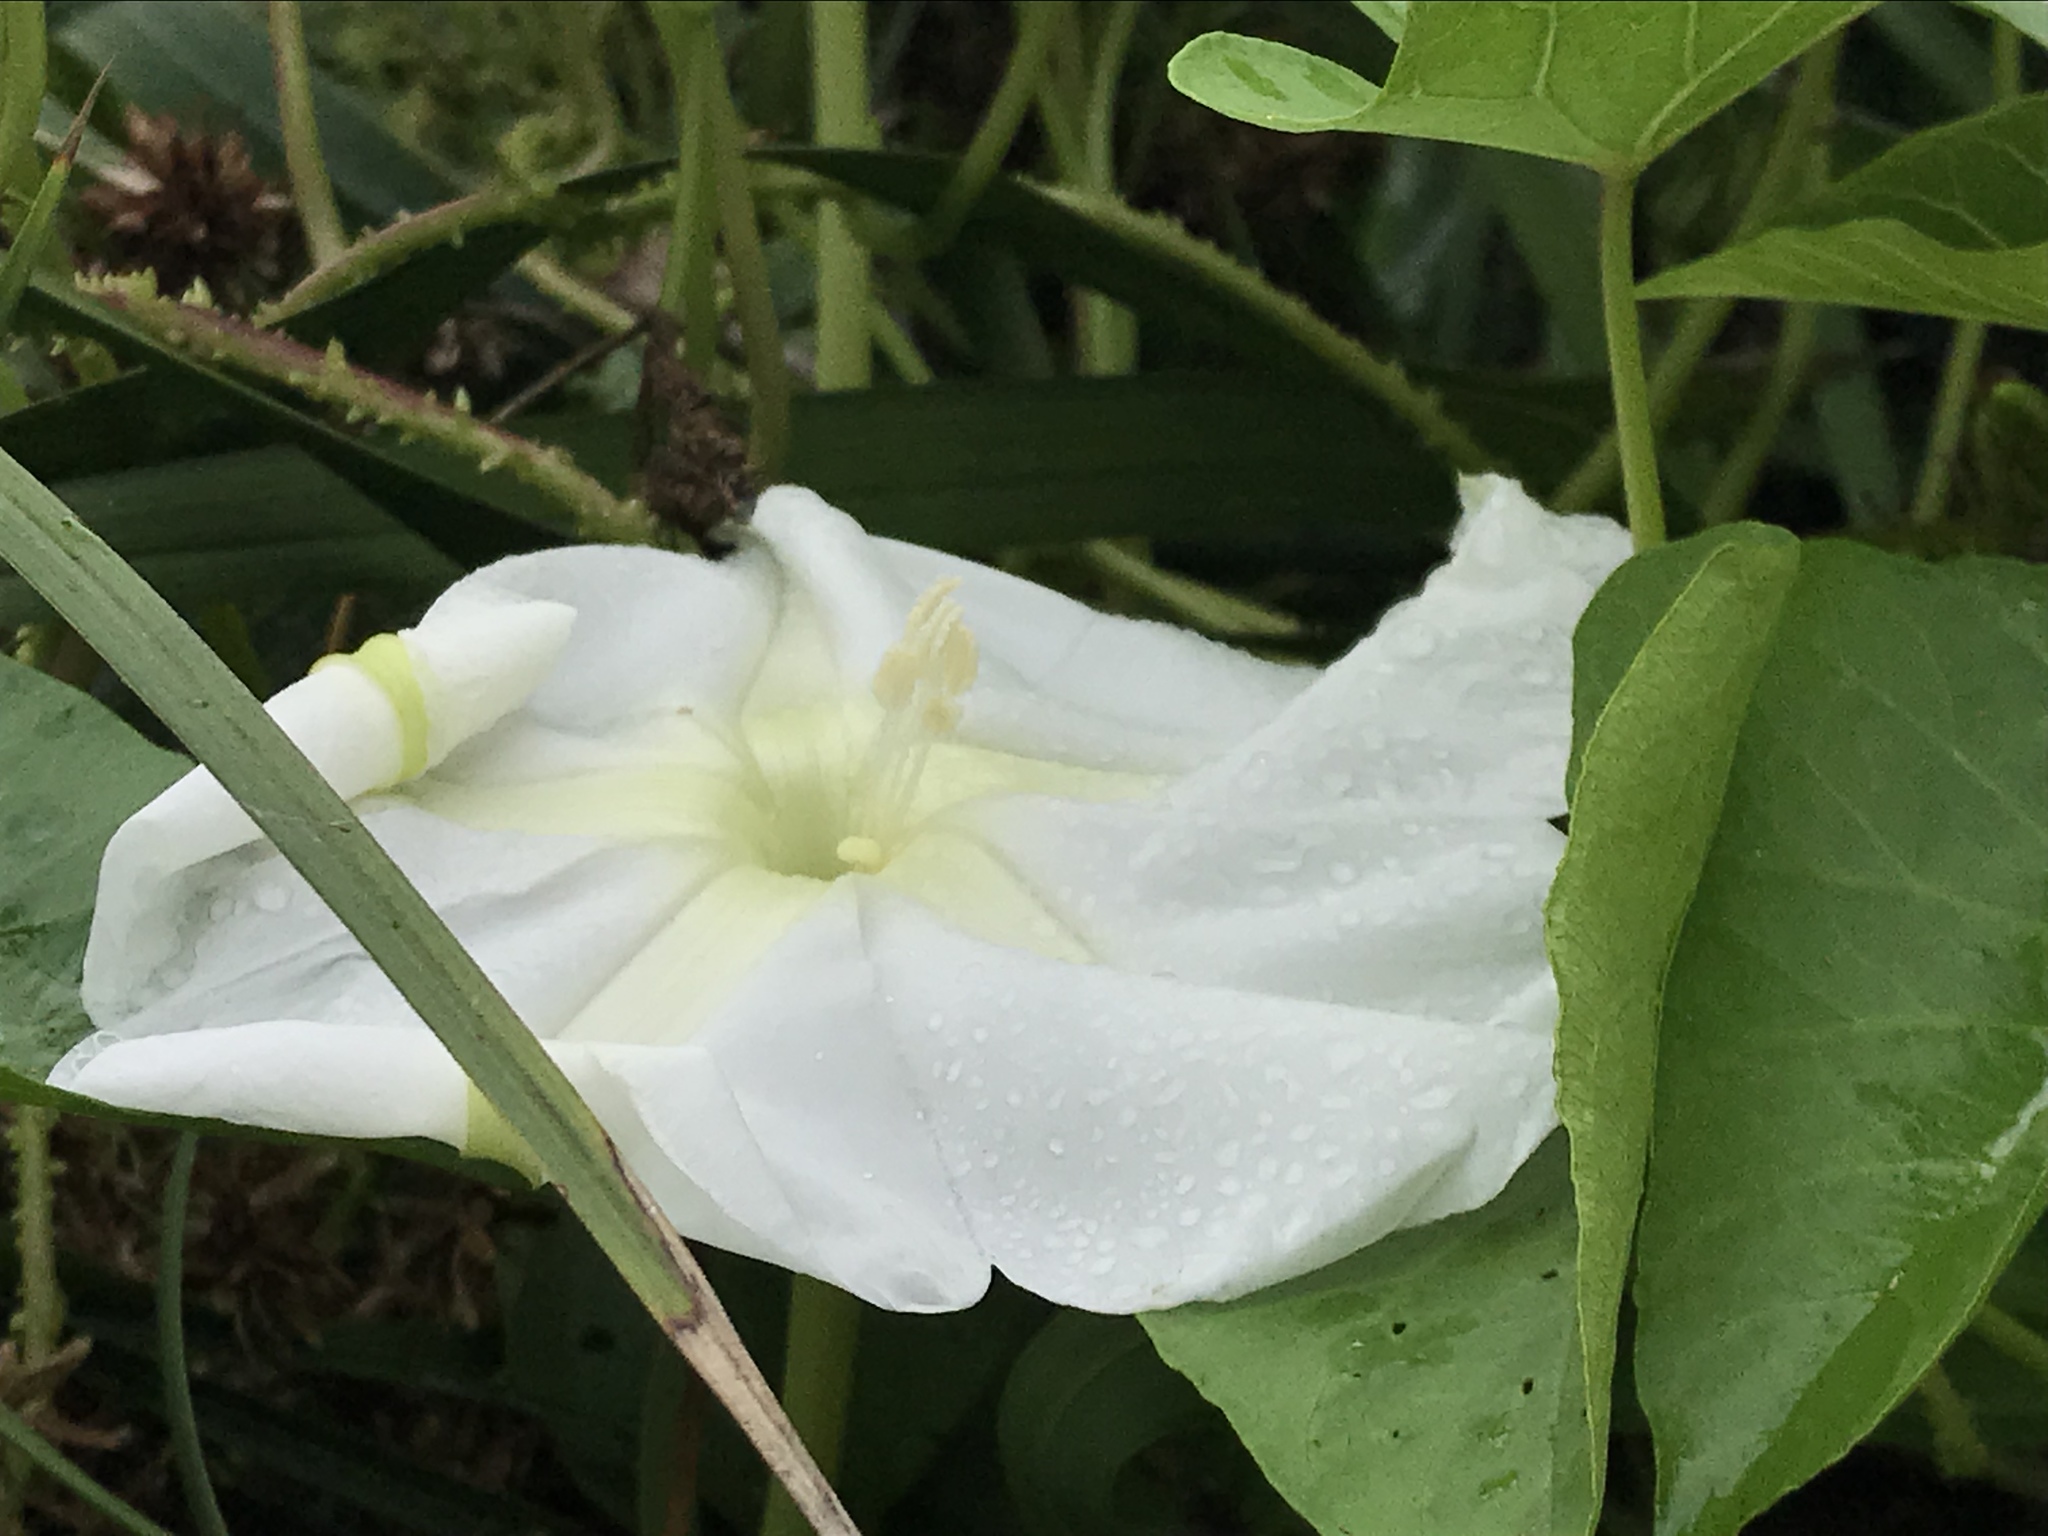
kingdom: Plantae
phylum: Tracheophyta
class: Magnoliopsida
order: Solanales
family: Convolvulaceae
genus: Ipomoea
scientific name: Ipomoea alba
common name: Moonflower
